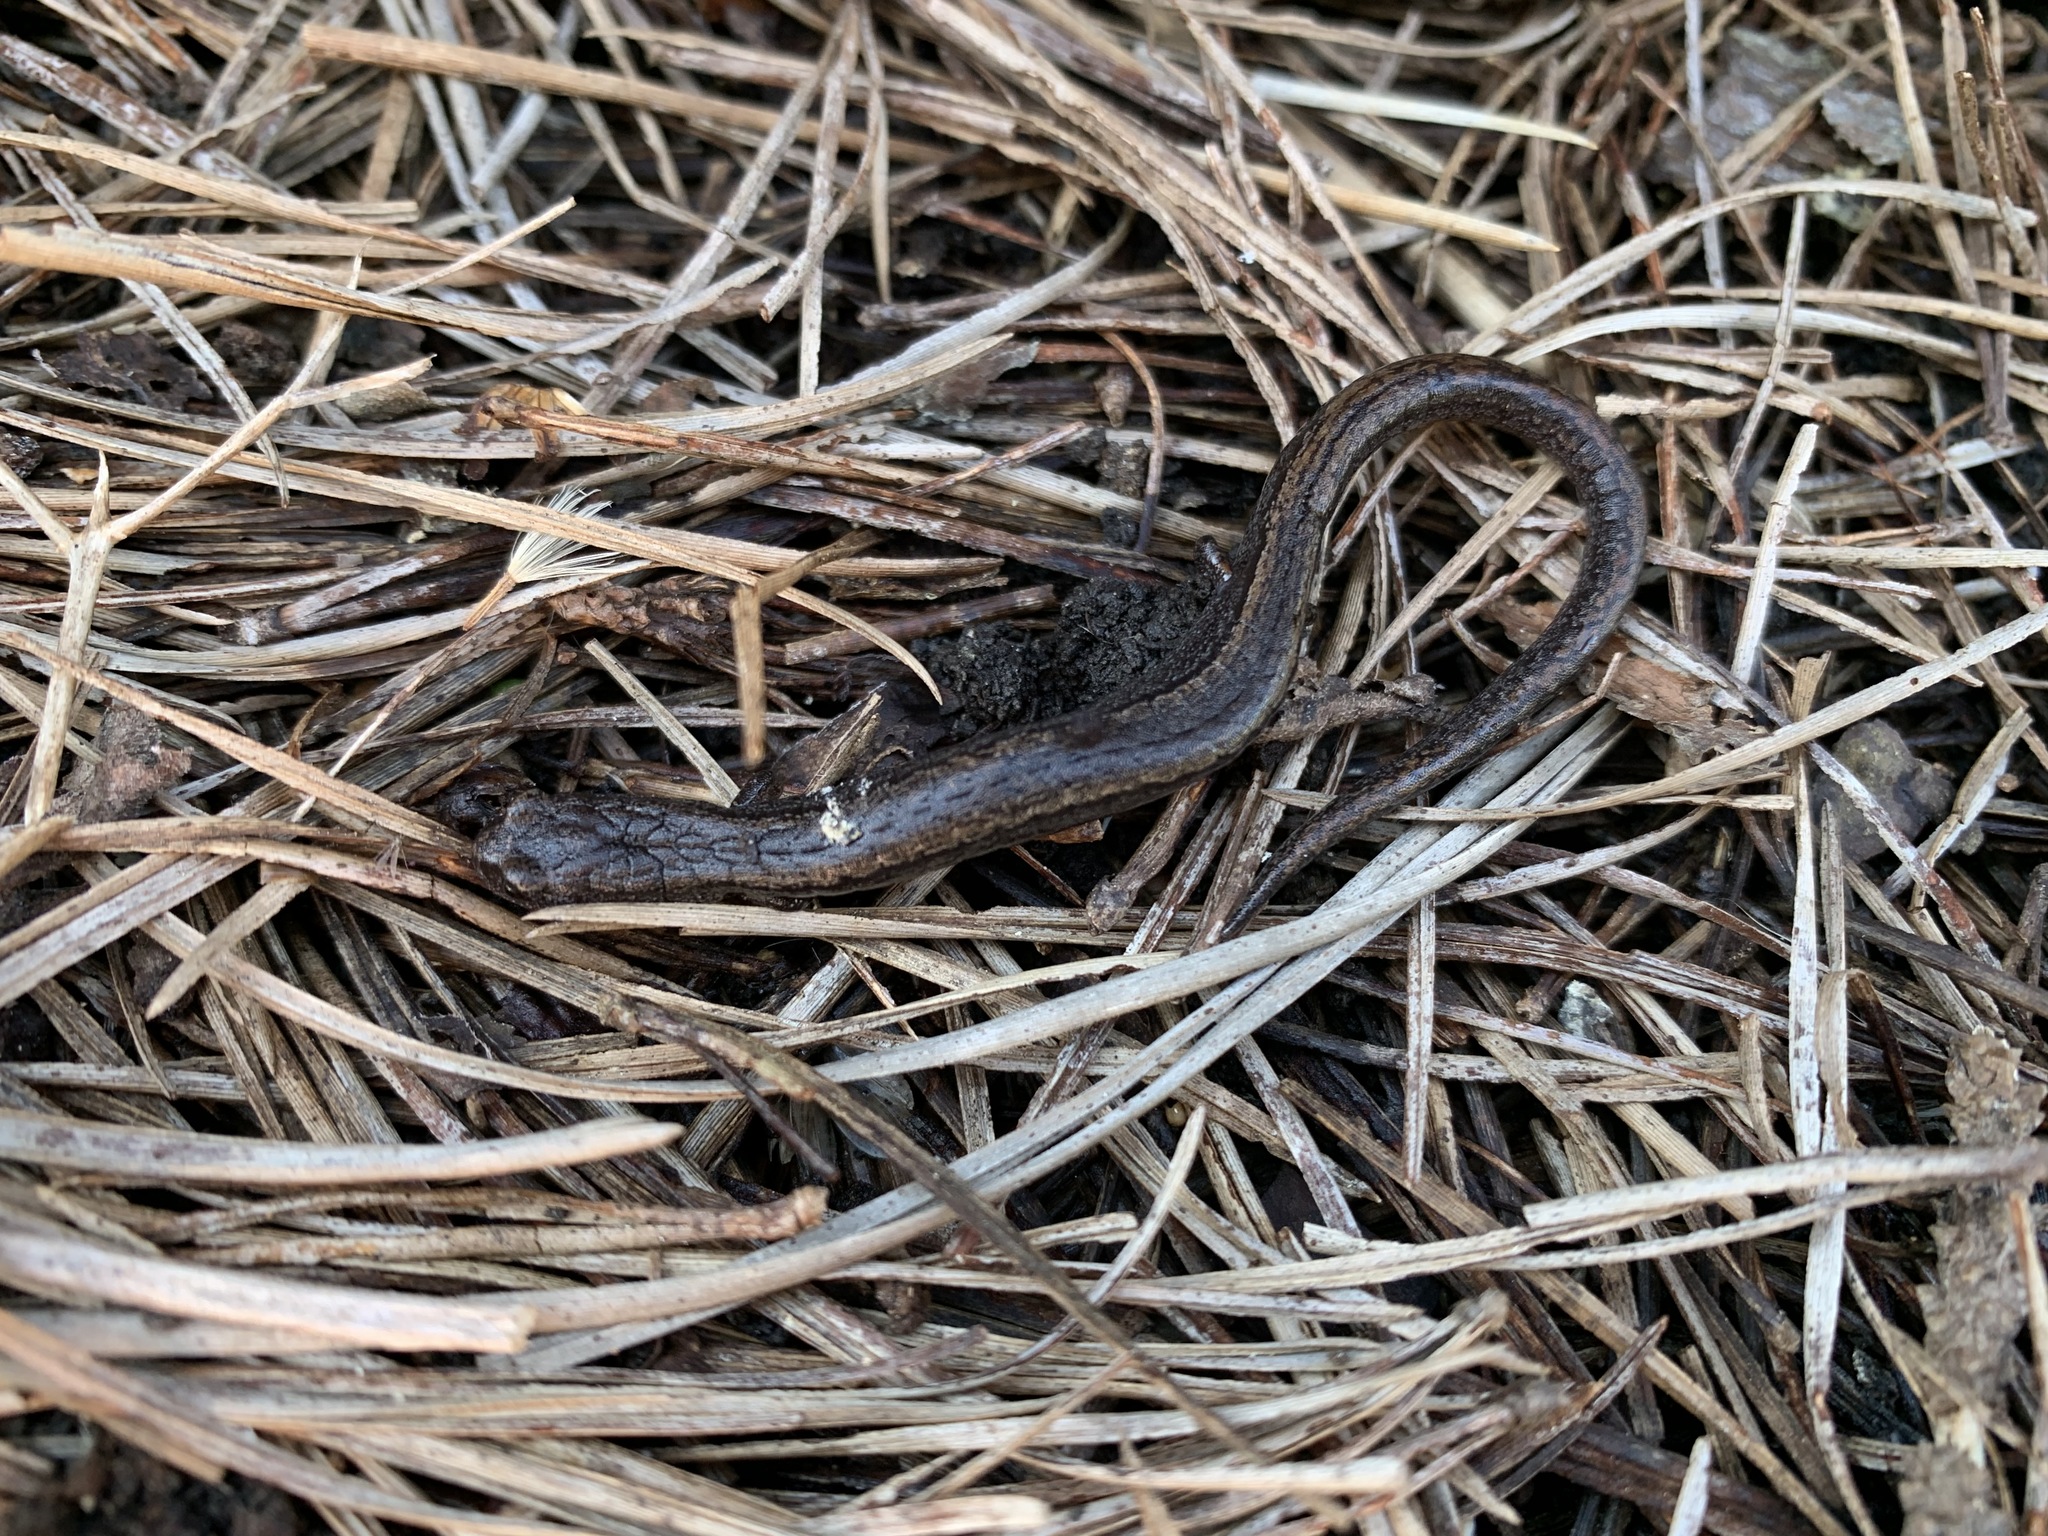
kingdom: Animalia
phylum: Chordata
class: Amphibia
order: Caudata
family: Plethodontidae
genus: Batrachoseps
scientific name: Batrachoseps attenuatus
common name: California slender salamander
